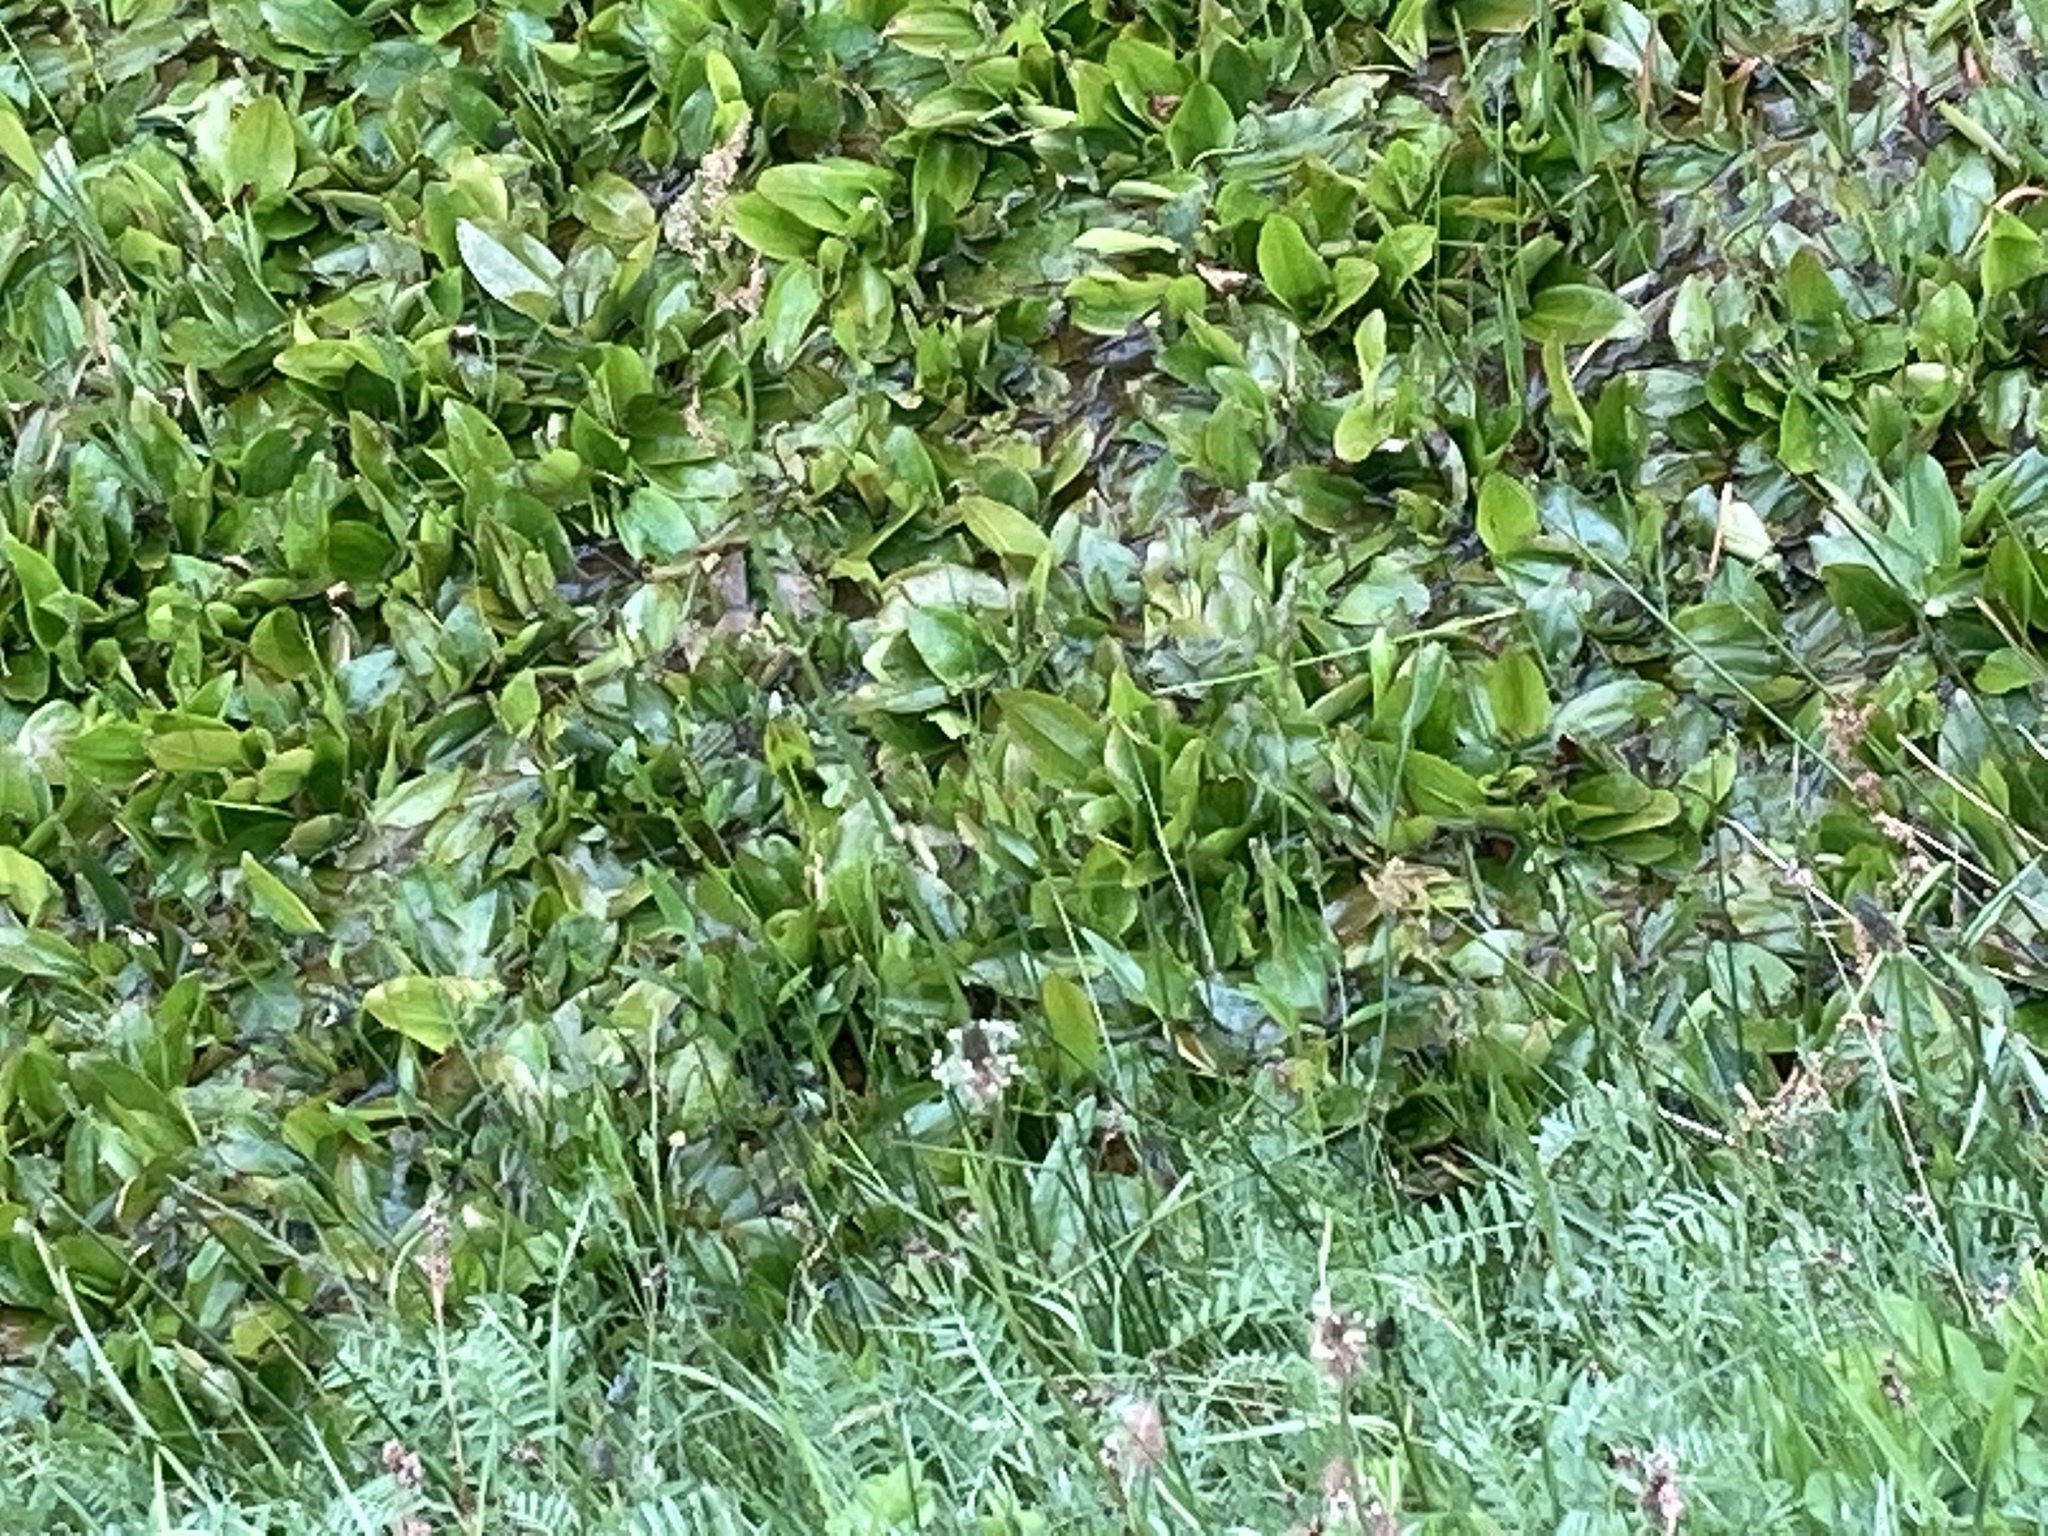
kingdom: Plantae
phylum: Tracheophyta
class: Liliopsida
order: Alismatales
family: Potamogetonaceae
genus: Potamogeton
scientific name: Potamogeton polygonifolius
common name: Bog pondweed
